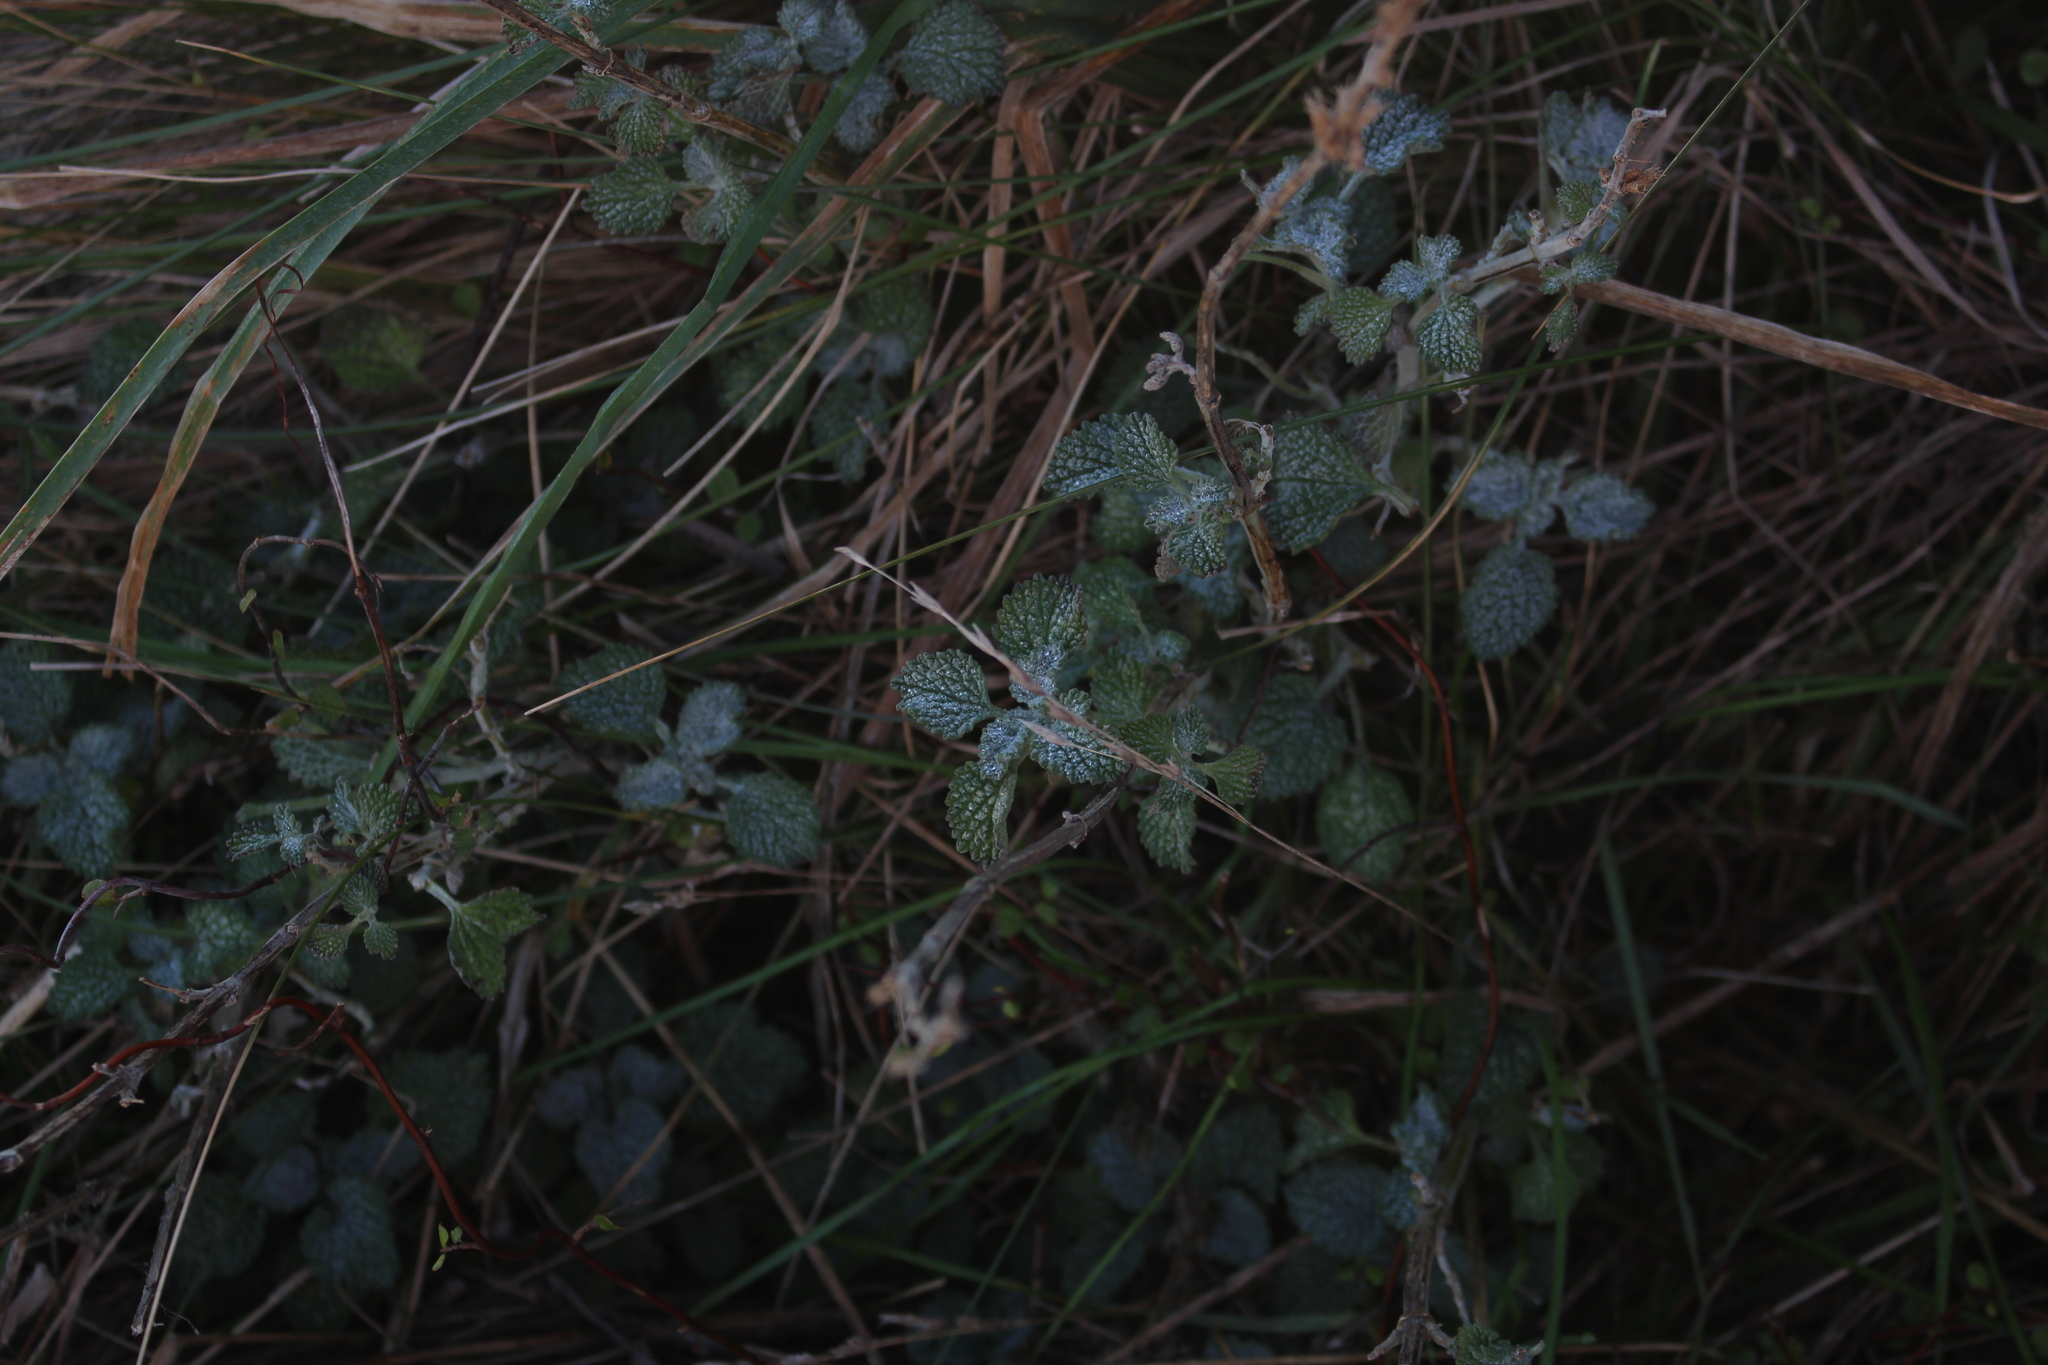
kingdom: Plantae
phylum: Tracheophyta
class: Magnoliopsida
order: Lamiales
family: Lamiaceae
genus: Marrubium
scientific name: Marrubium vulgare
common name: Horehound
